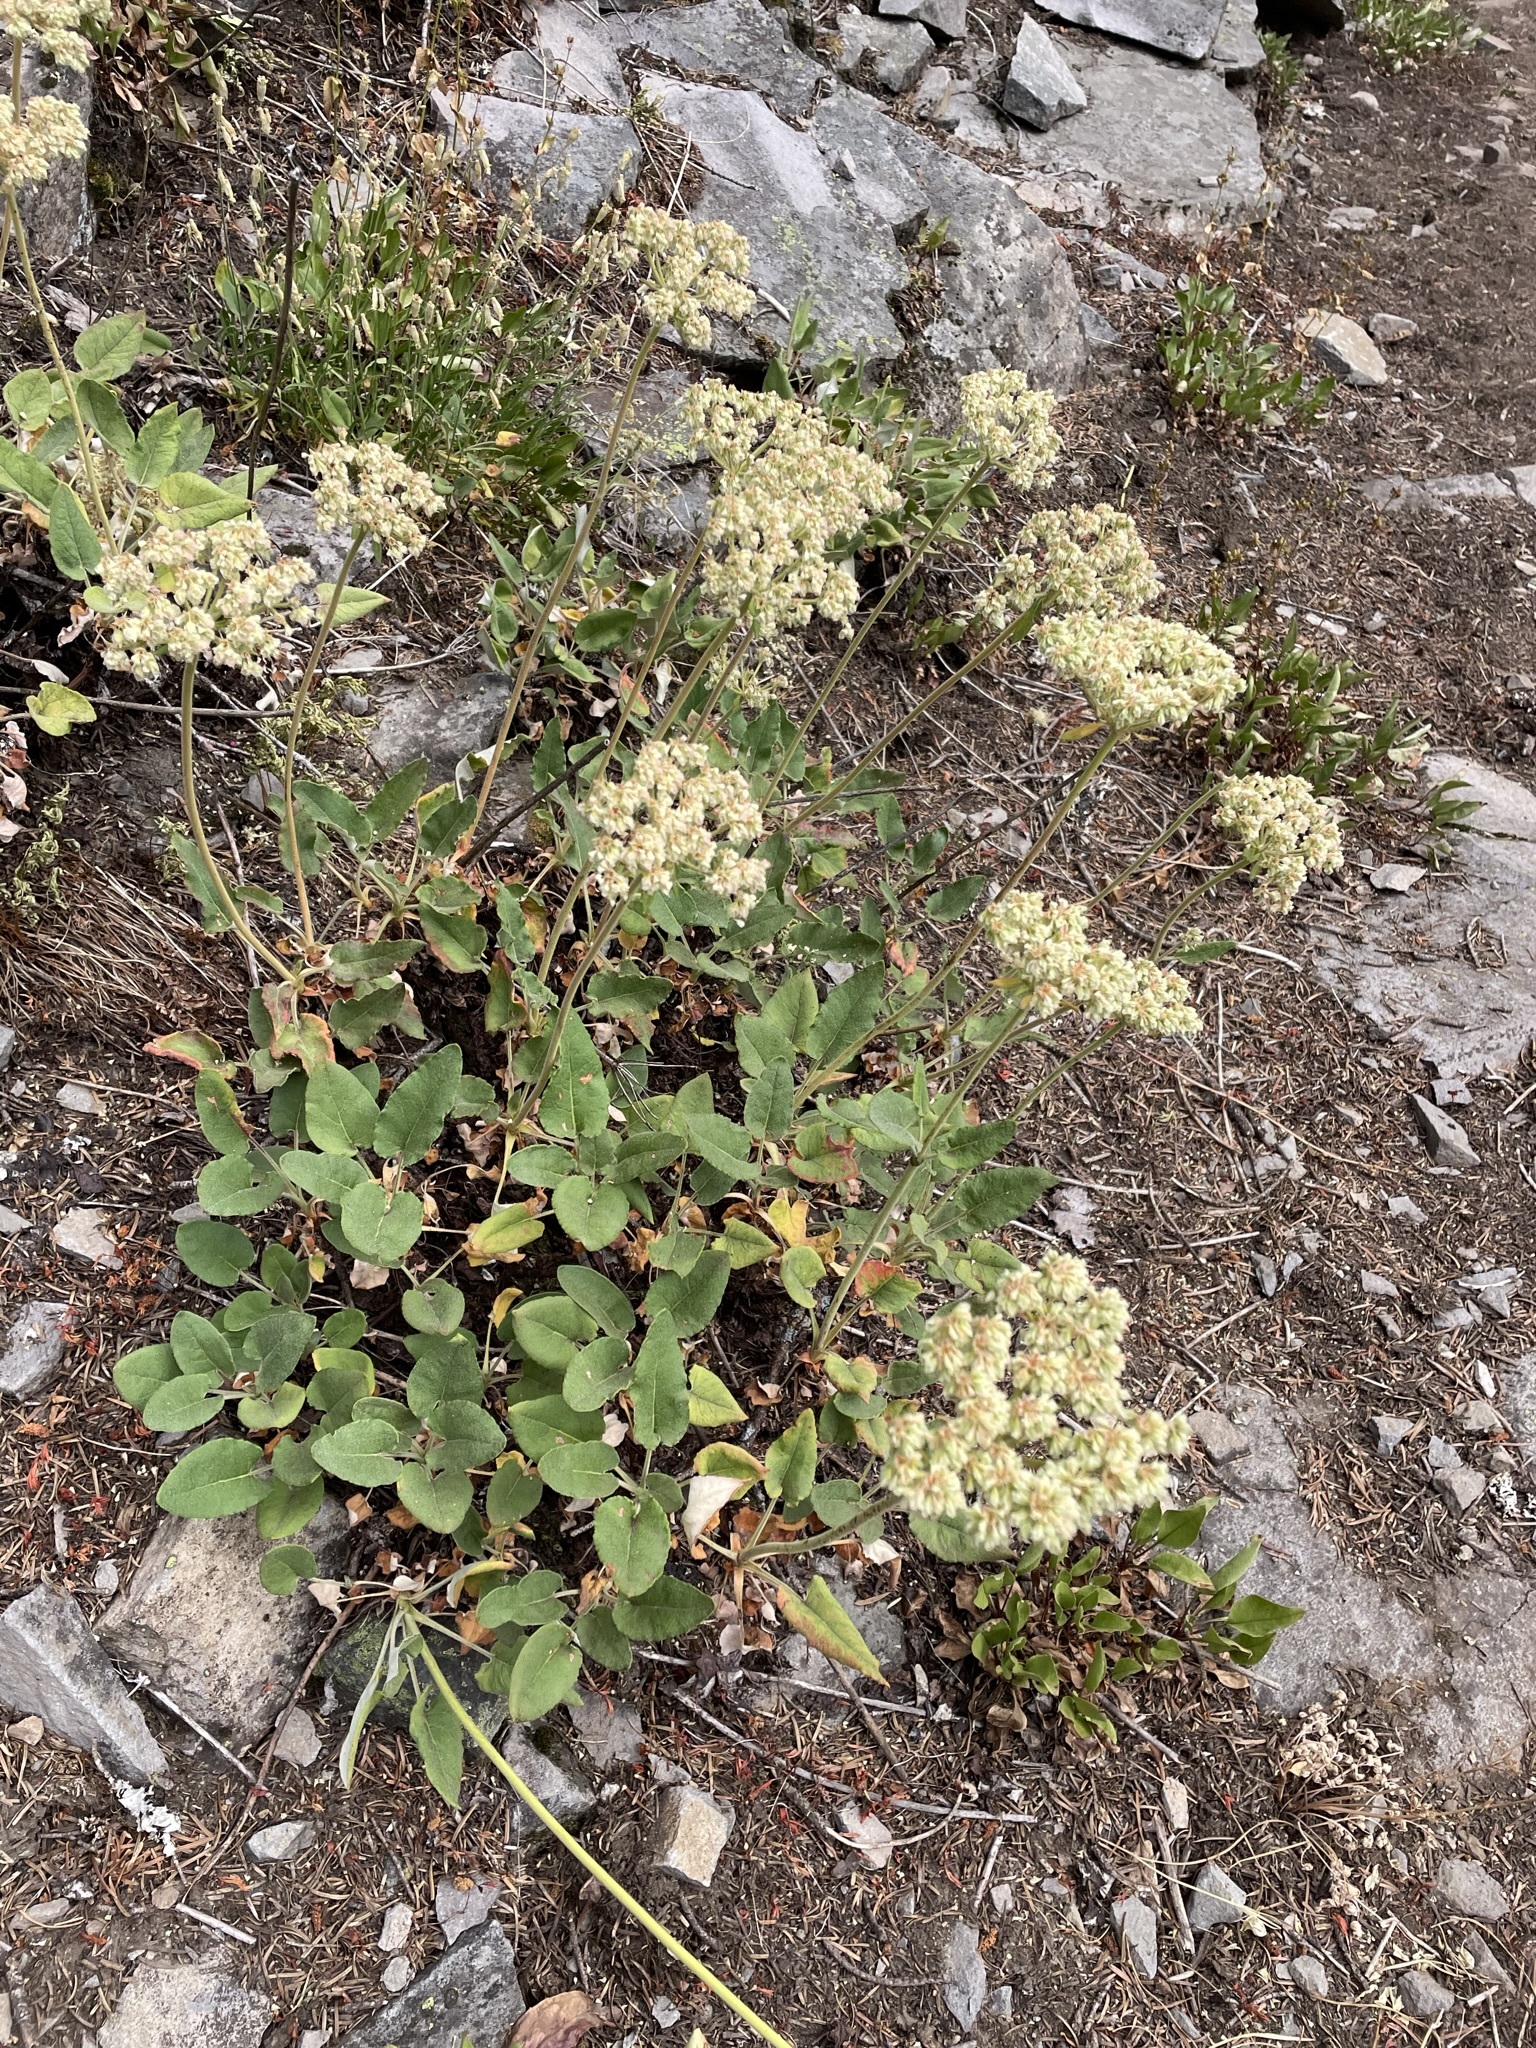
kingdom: Plantae
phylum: Tracheophyta
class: Magnoliopsida
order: Caryophyllales
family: Polygonaceae
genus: Eriogonum
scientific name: Eriogonum compositum
